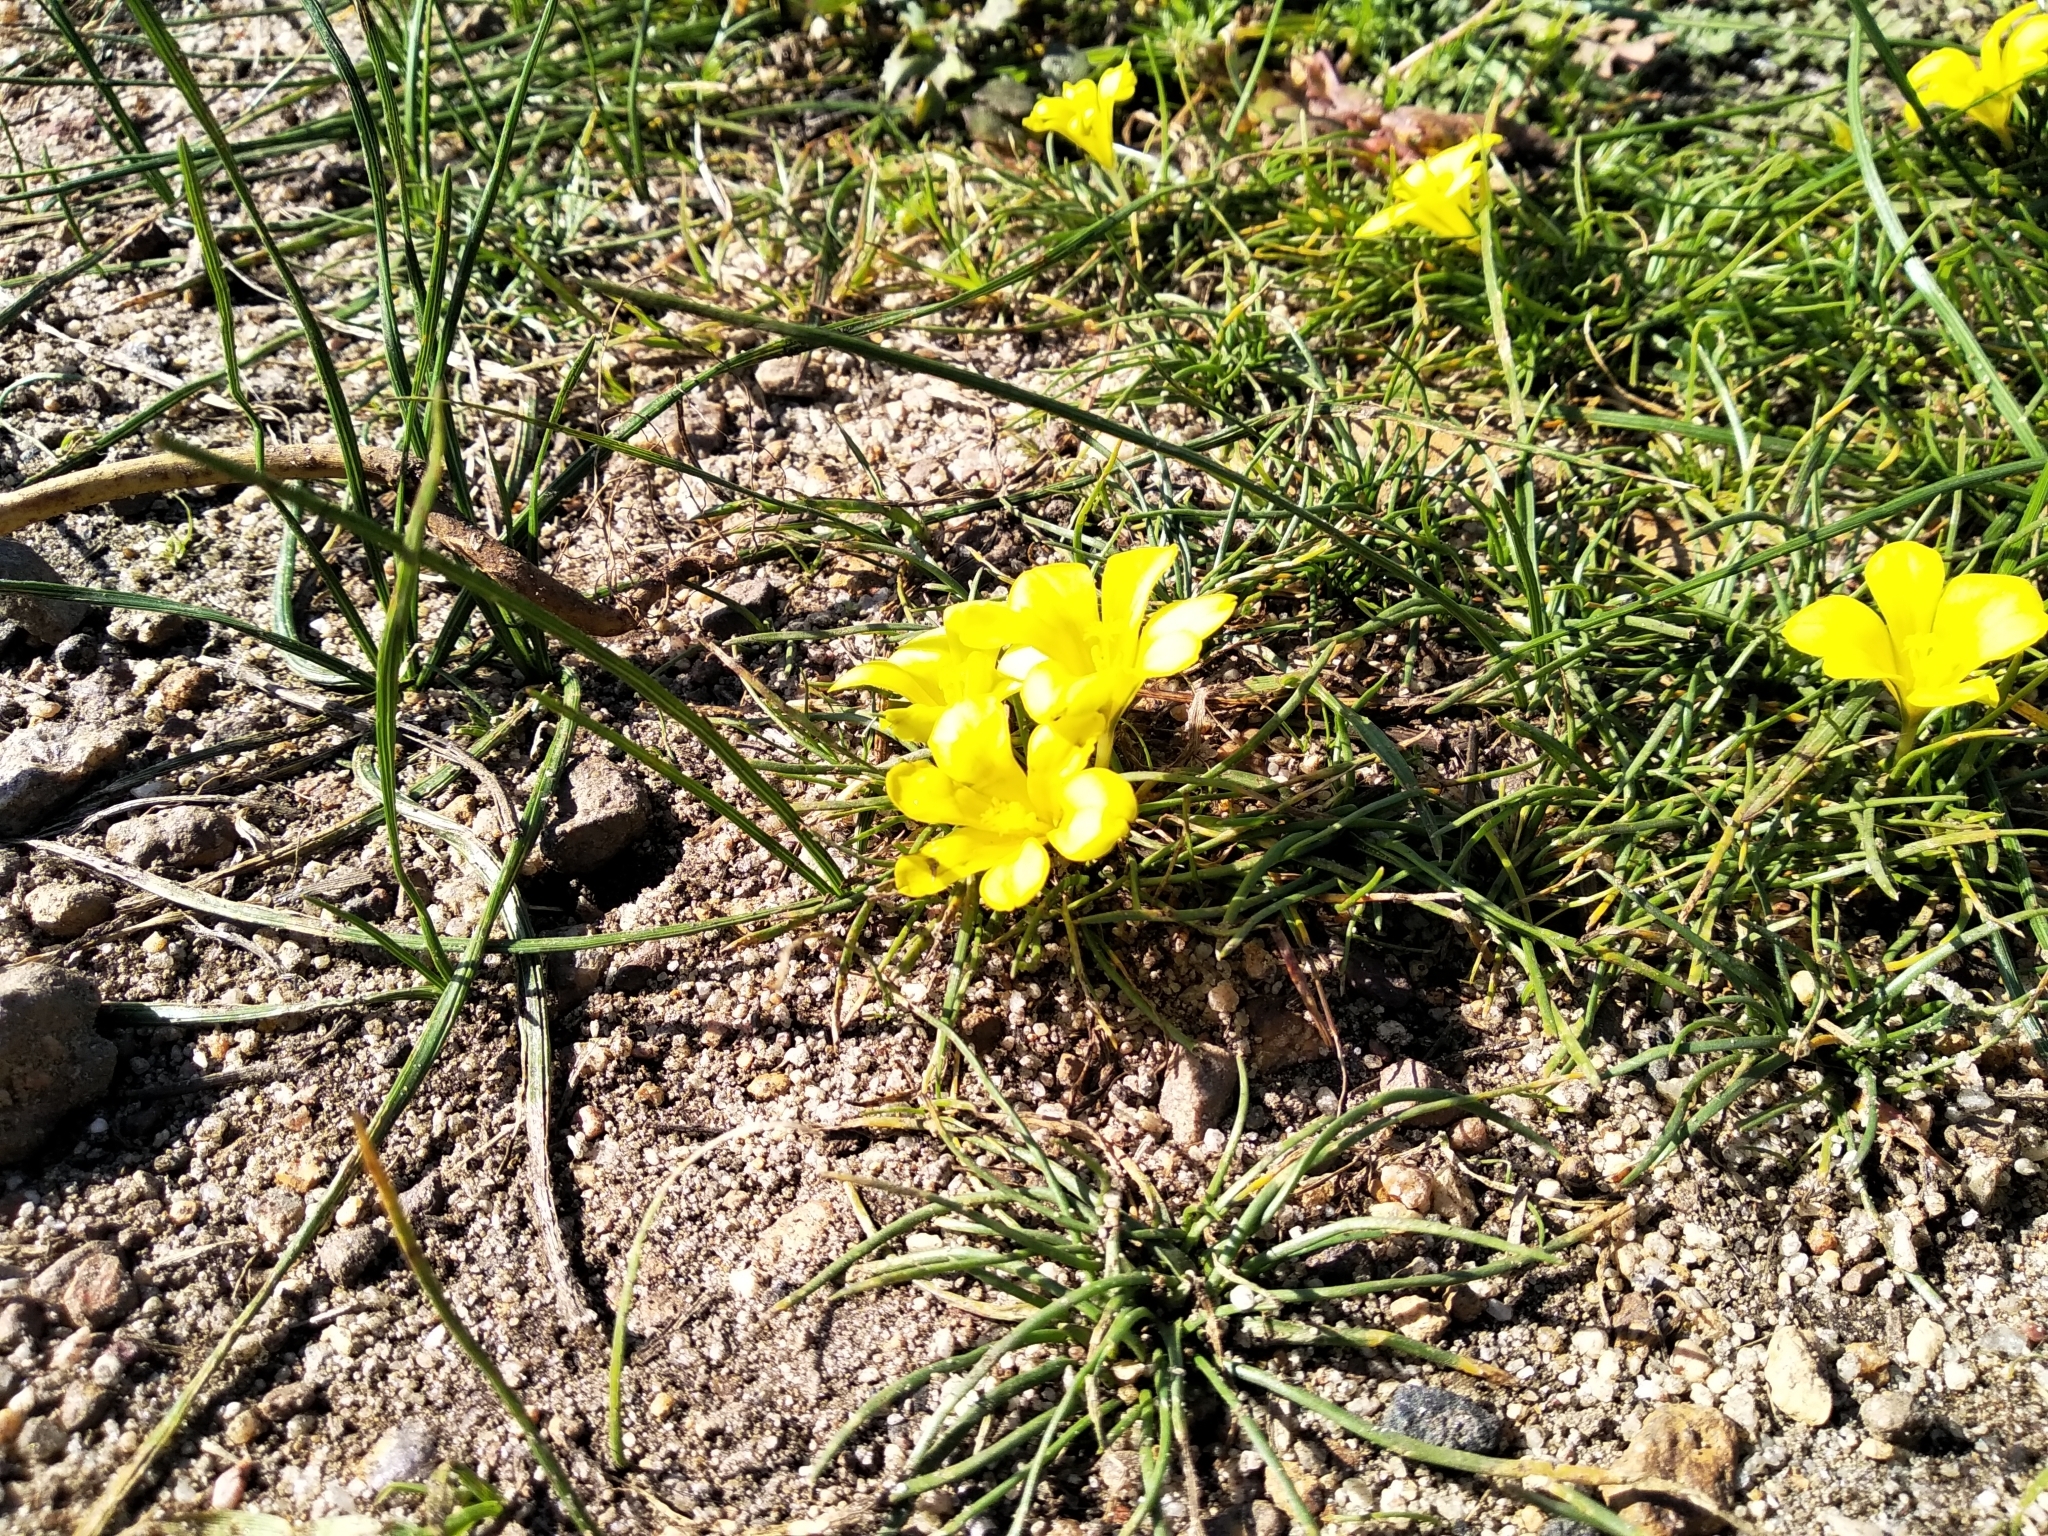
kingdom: Plantae
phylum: Tracheophyta
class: Liliopsida
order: Asparagales
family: Iridaceae
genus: Moraea
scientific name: Moraea fugacissima
